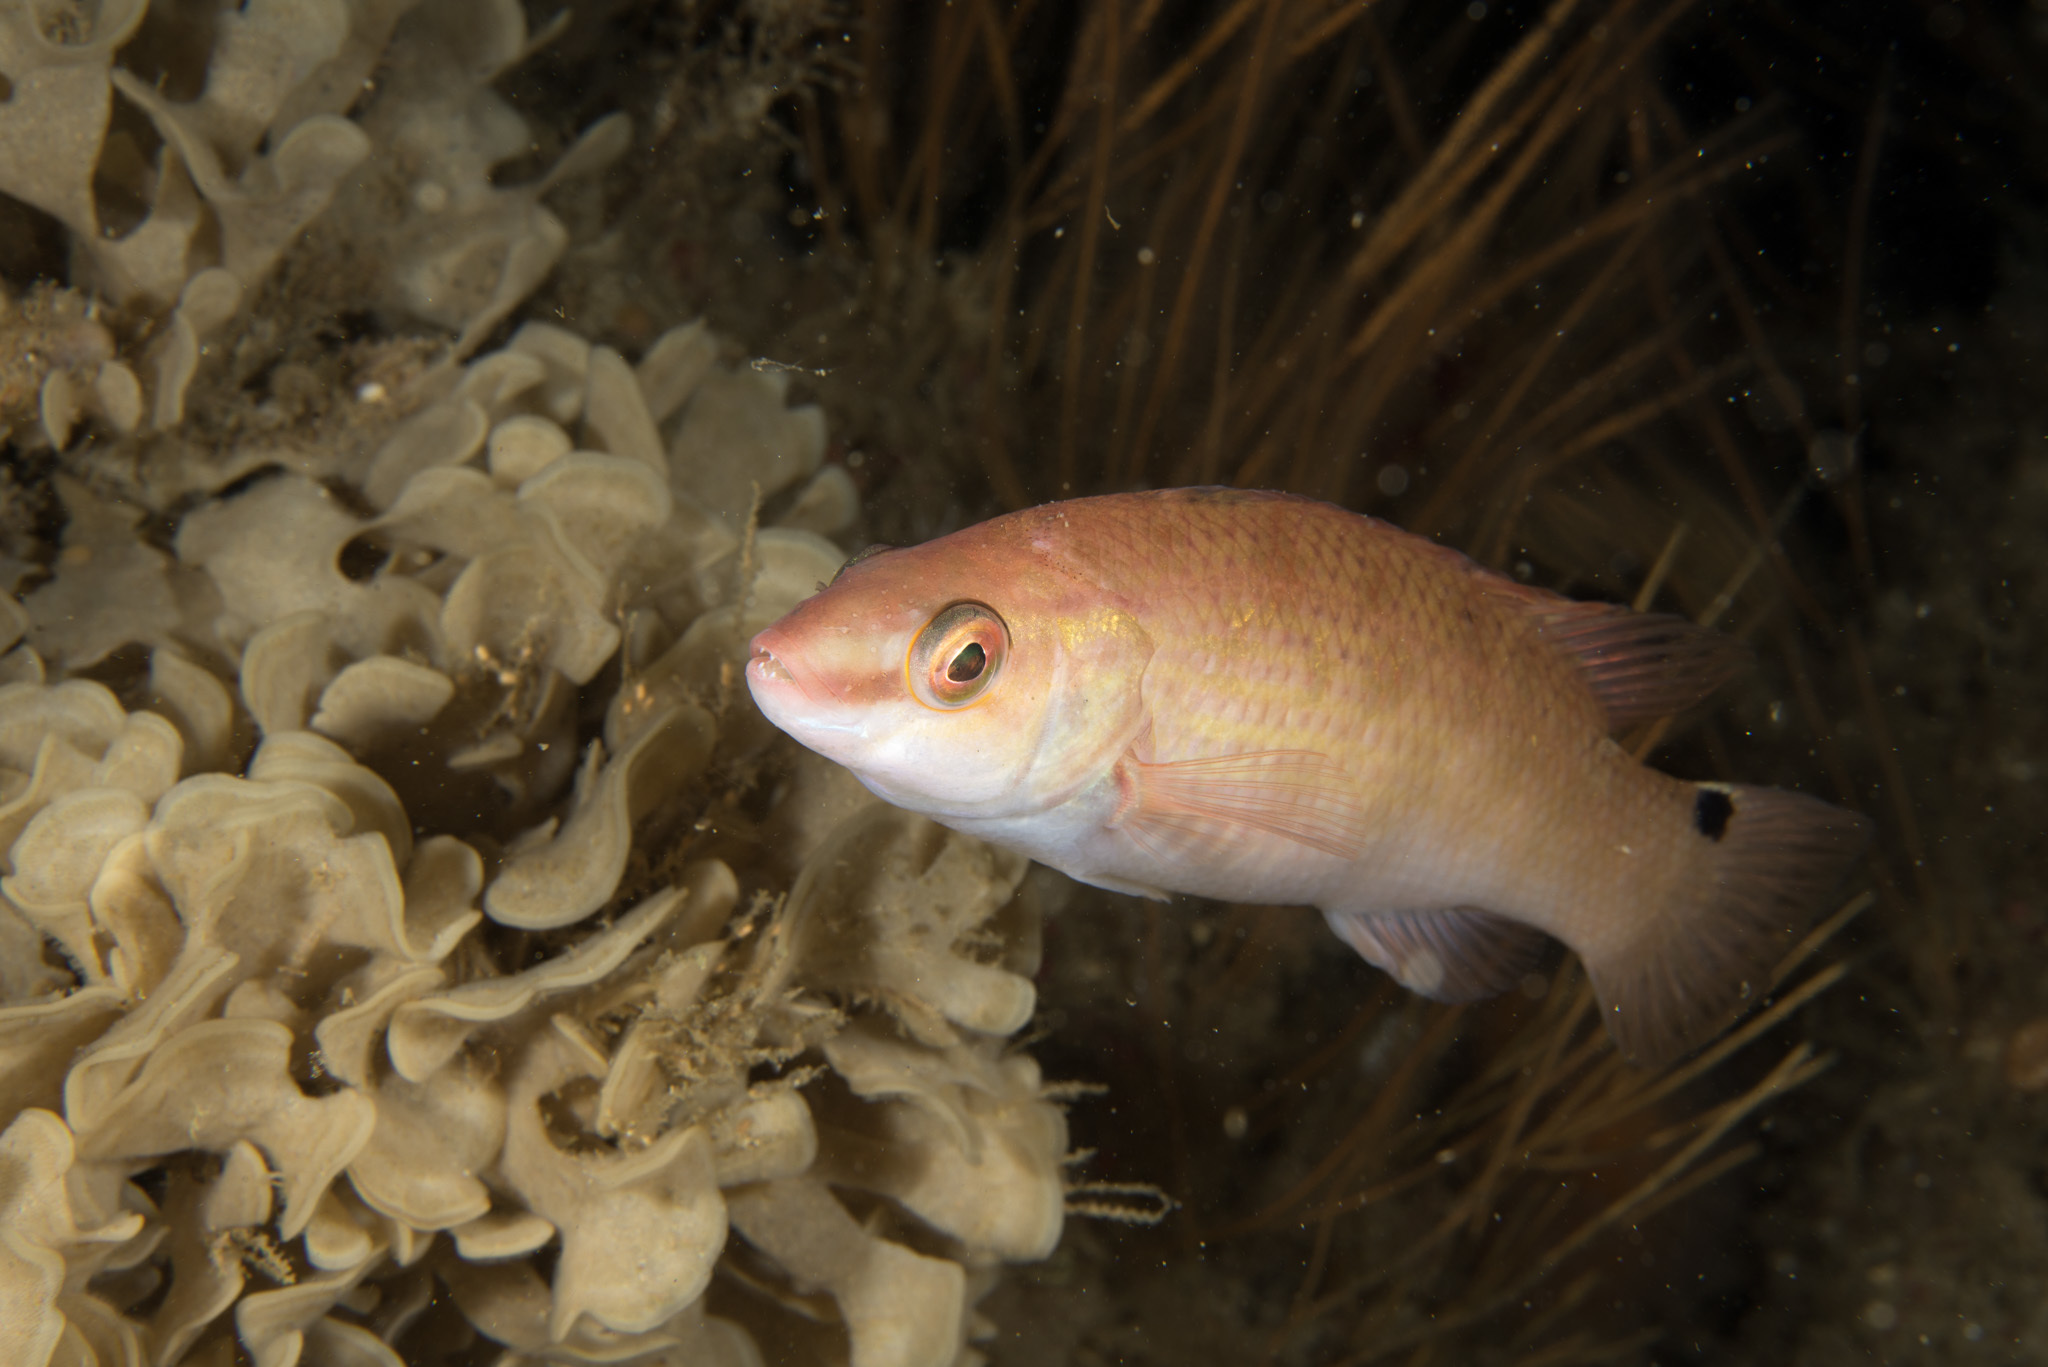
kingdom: Animalia
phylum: Chordata
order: Perciformes
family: Labridae
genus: Ctenolabrus
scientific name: Ctenolabrus rupestris
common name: Goldsinny
